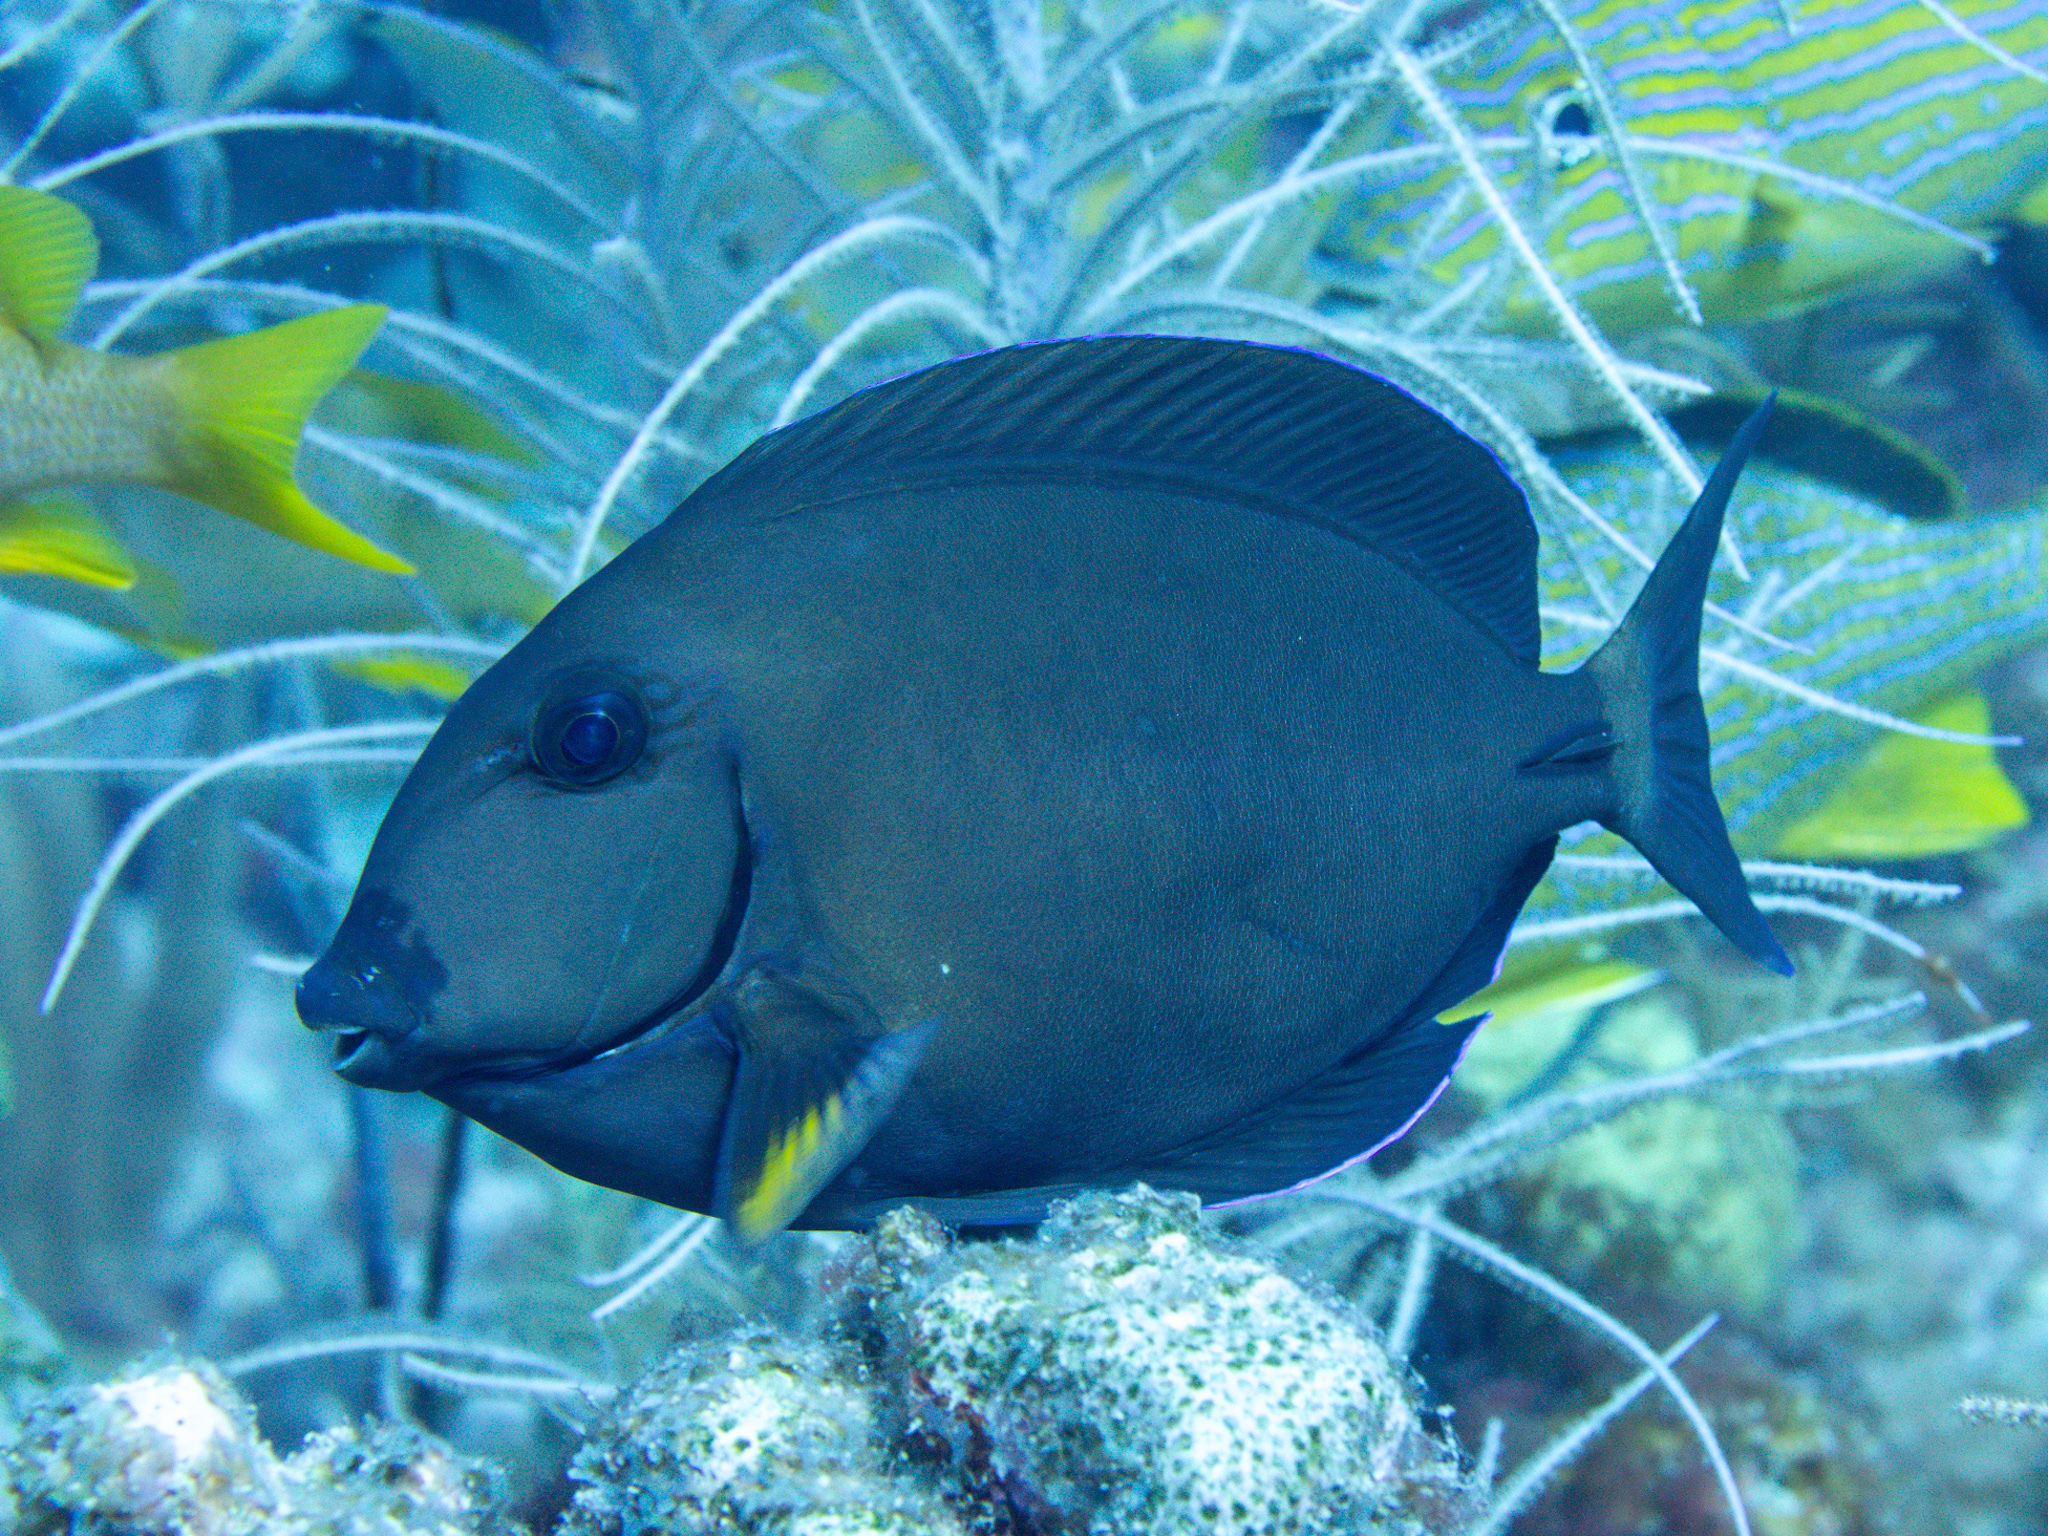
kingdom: Animalia
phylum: Chordata
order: Perciformes
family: Acanthuridae
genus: Acanthurus
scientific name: Acanthurus chirurgus
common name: Doctorfish
